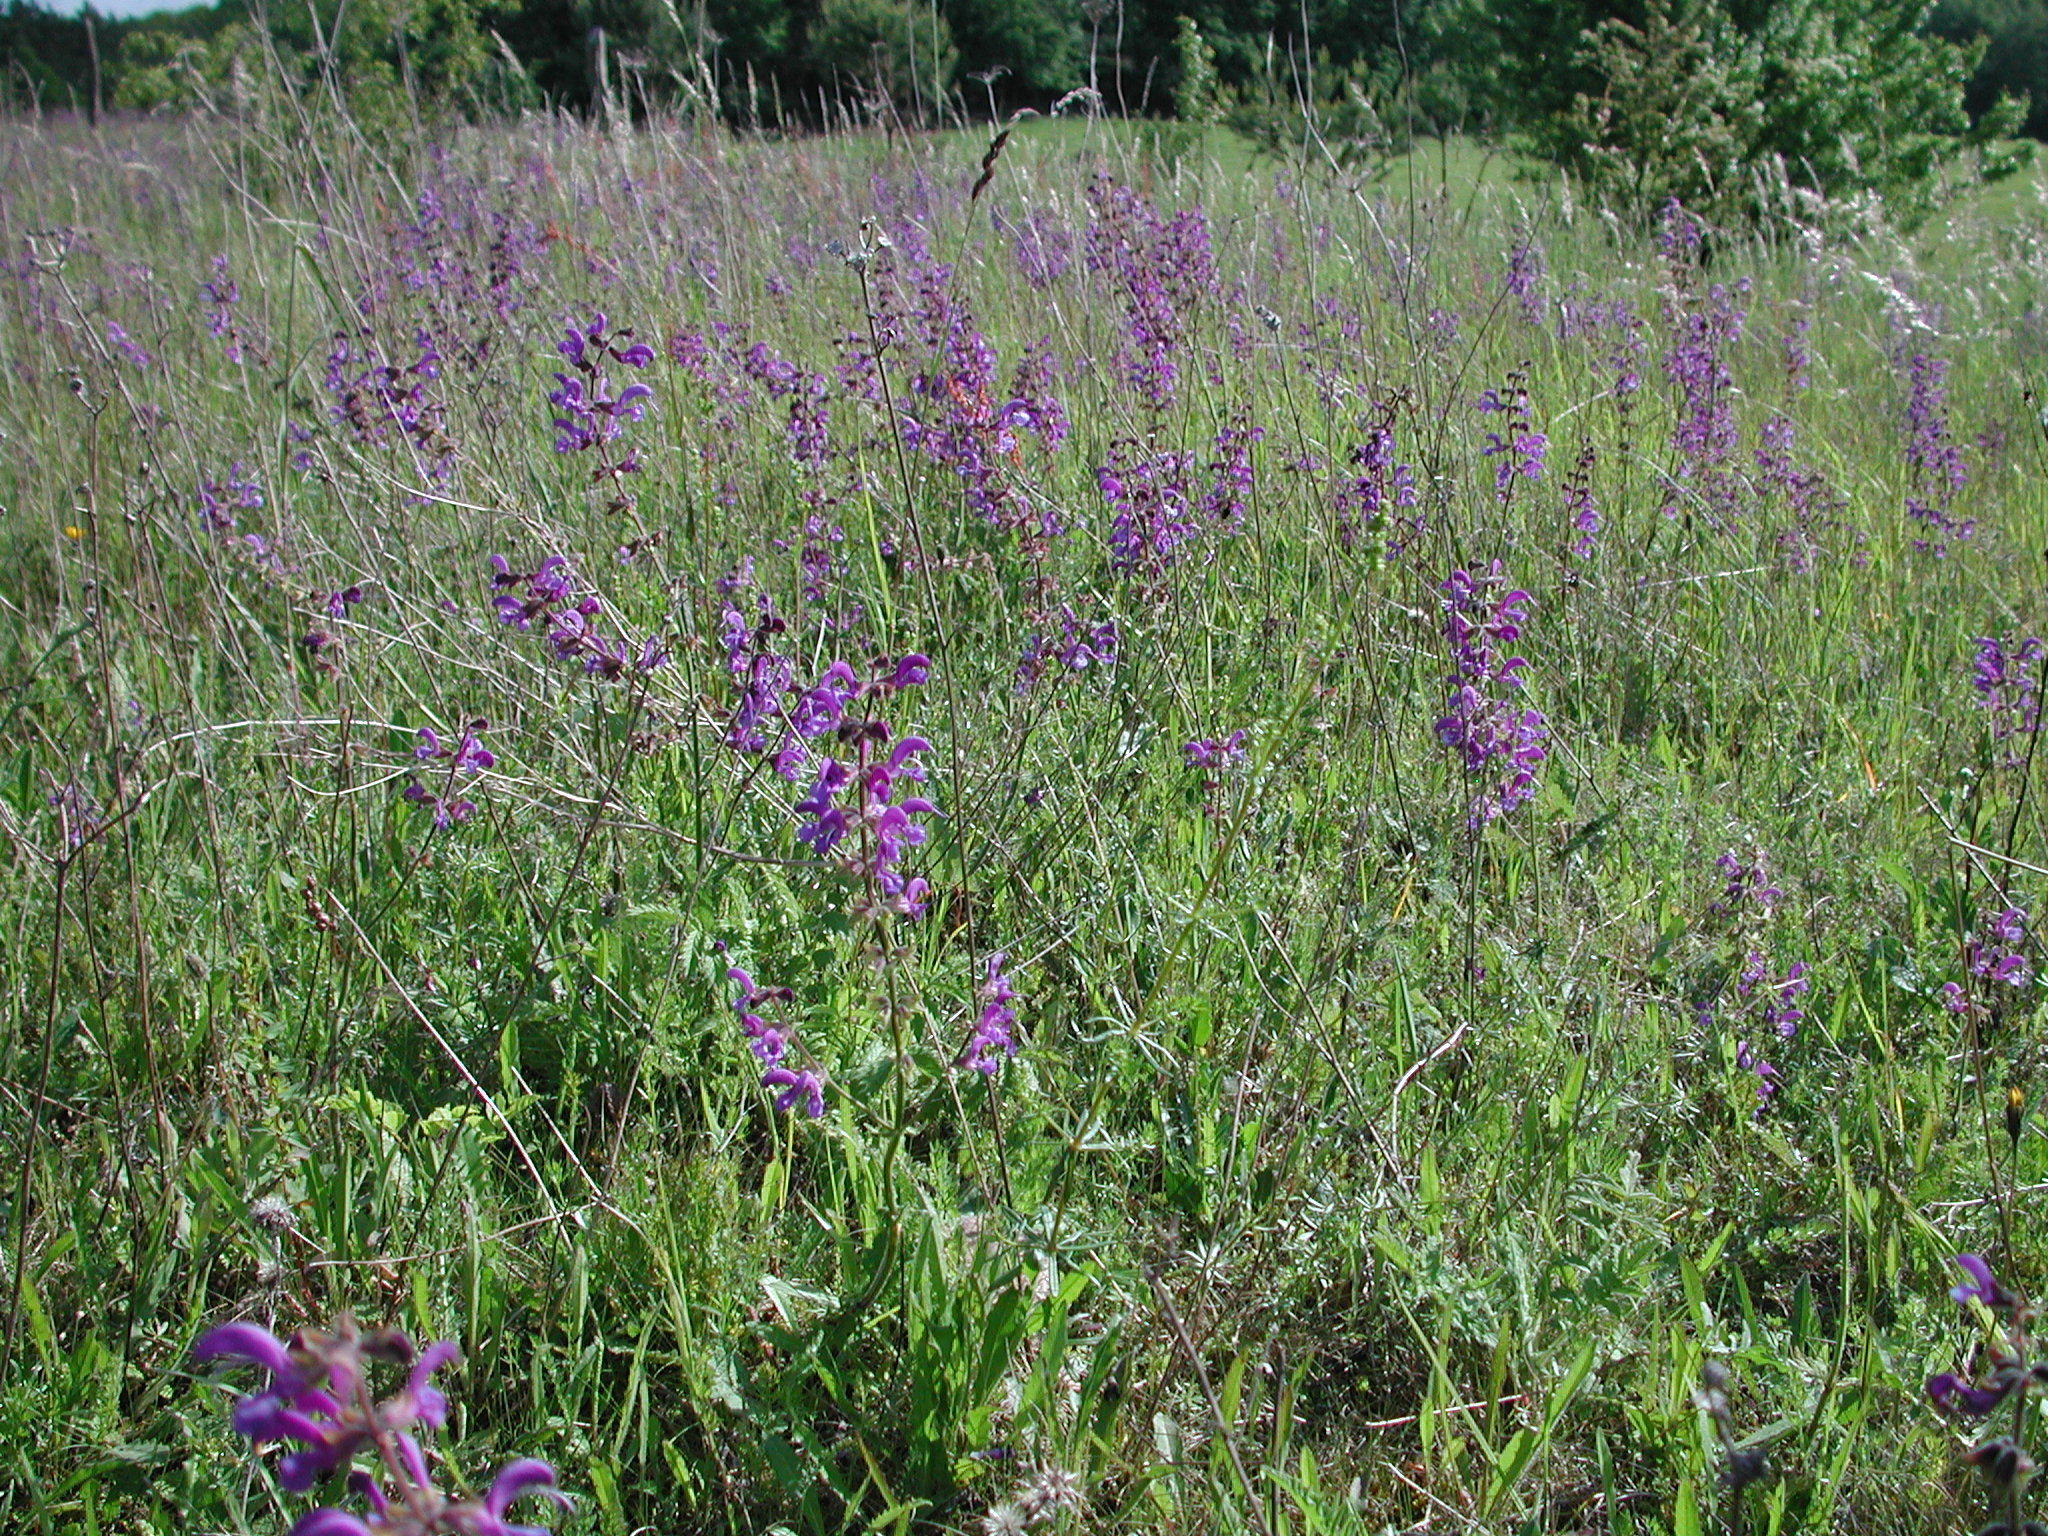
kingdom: Plantae
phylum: Tracheophyta
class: Magnoliopsida
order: Lamiales
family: Lamiaceae
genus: Salvia
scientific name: Salvia pratensis
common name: Meadow sage
